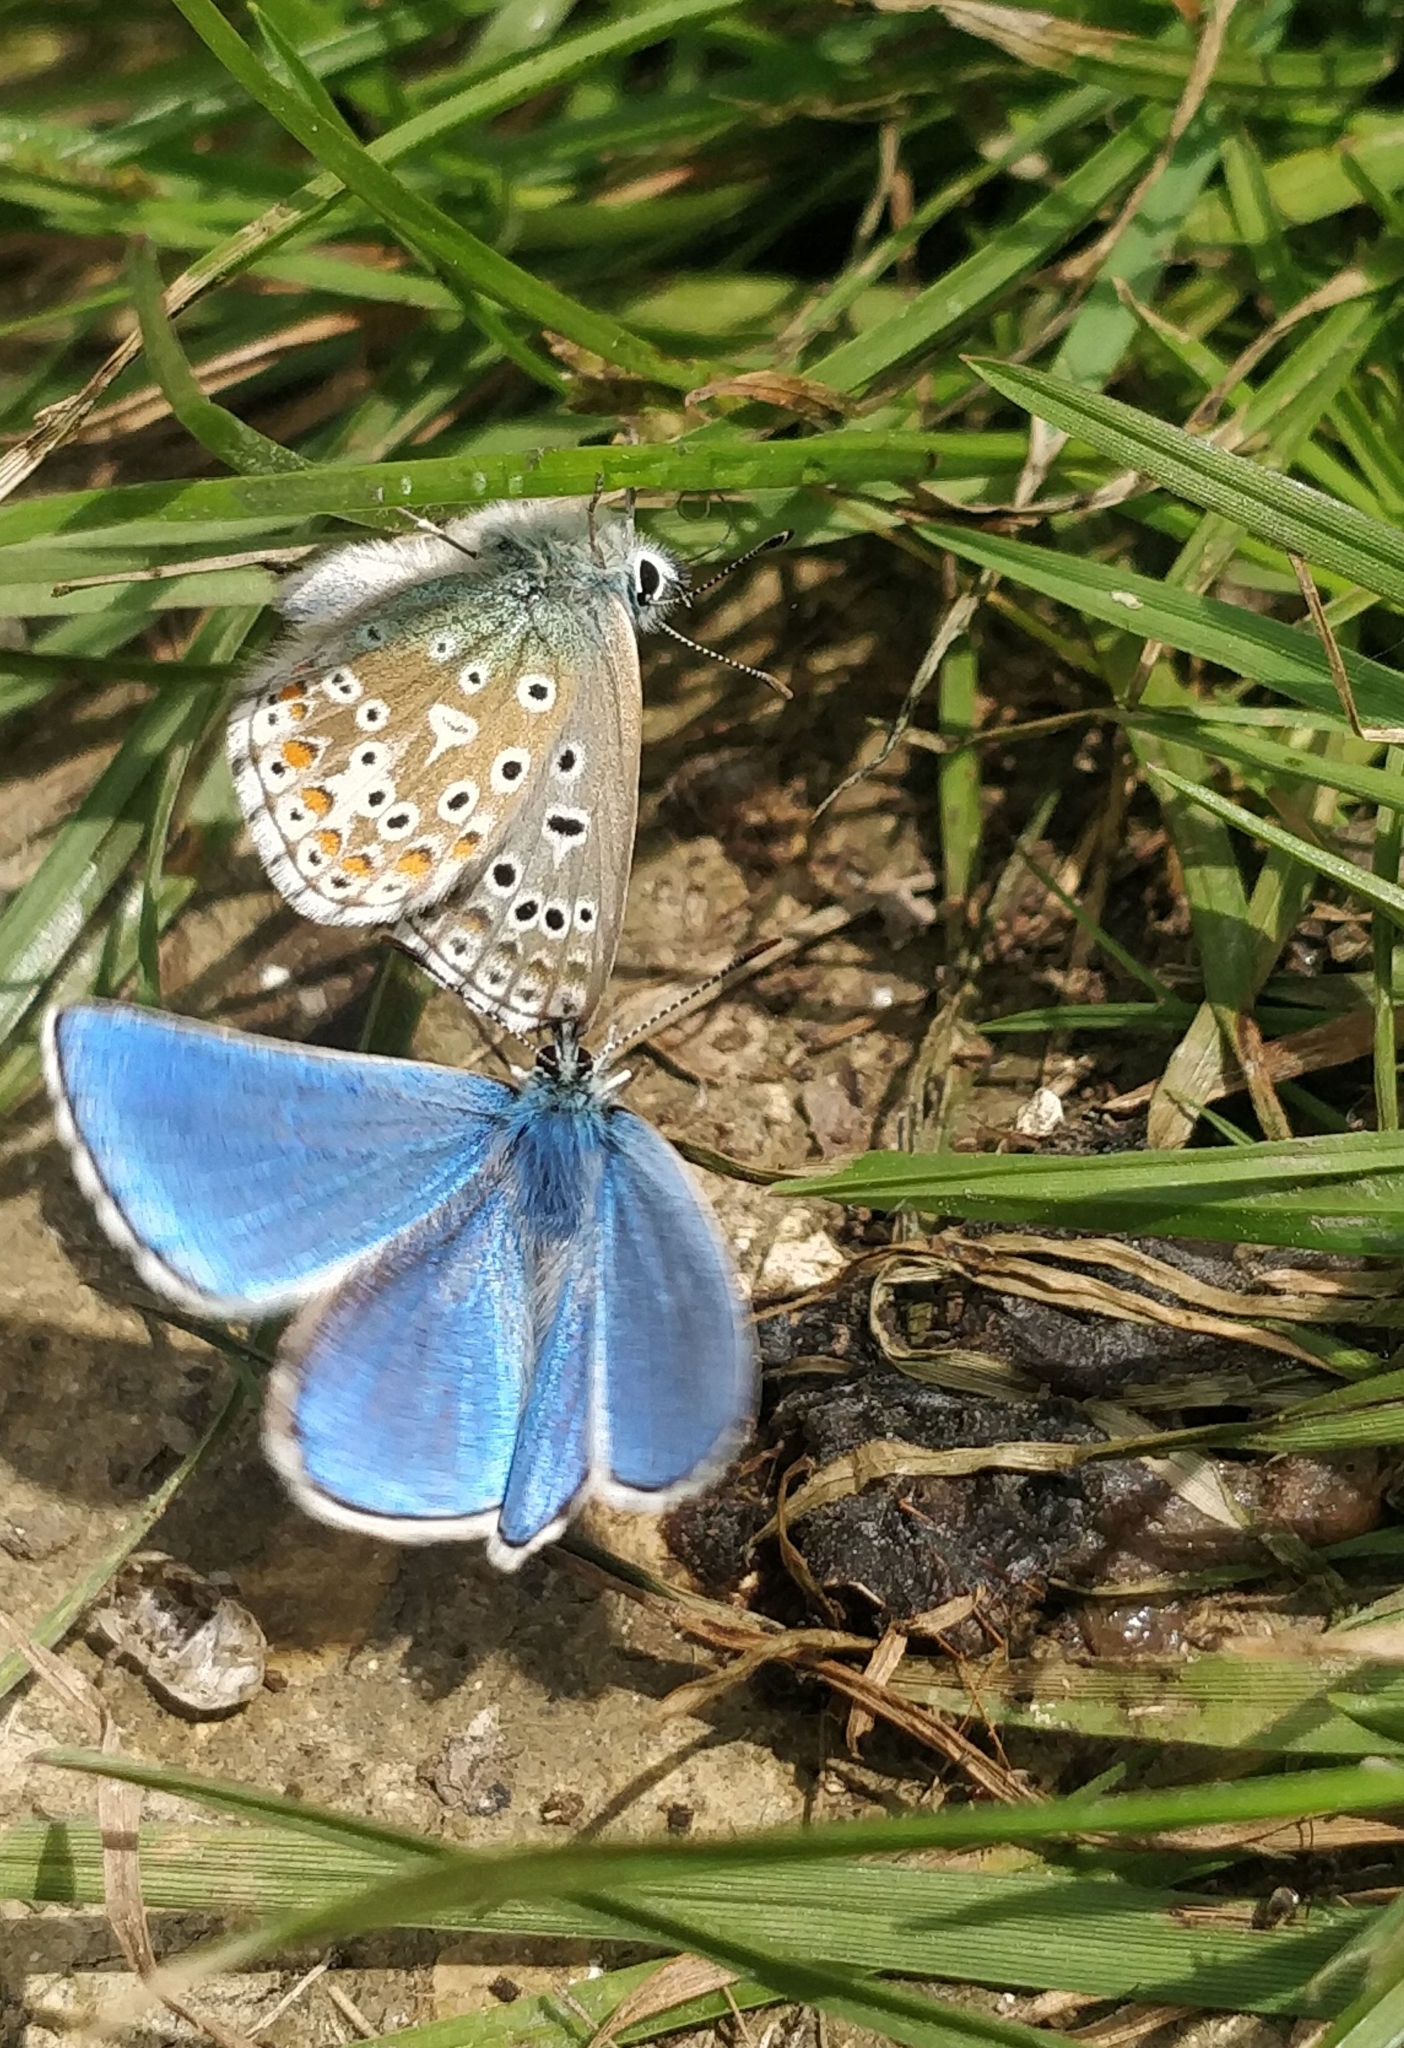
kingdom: Animalia
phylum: Arthropoda
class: Insecta
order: Lepidoptera
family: Lycaenidae
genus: Lysandra
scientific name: Lysandra bellargus
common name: Adonis blue
